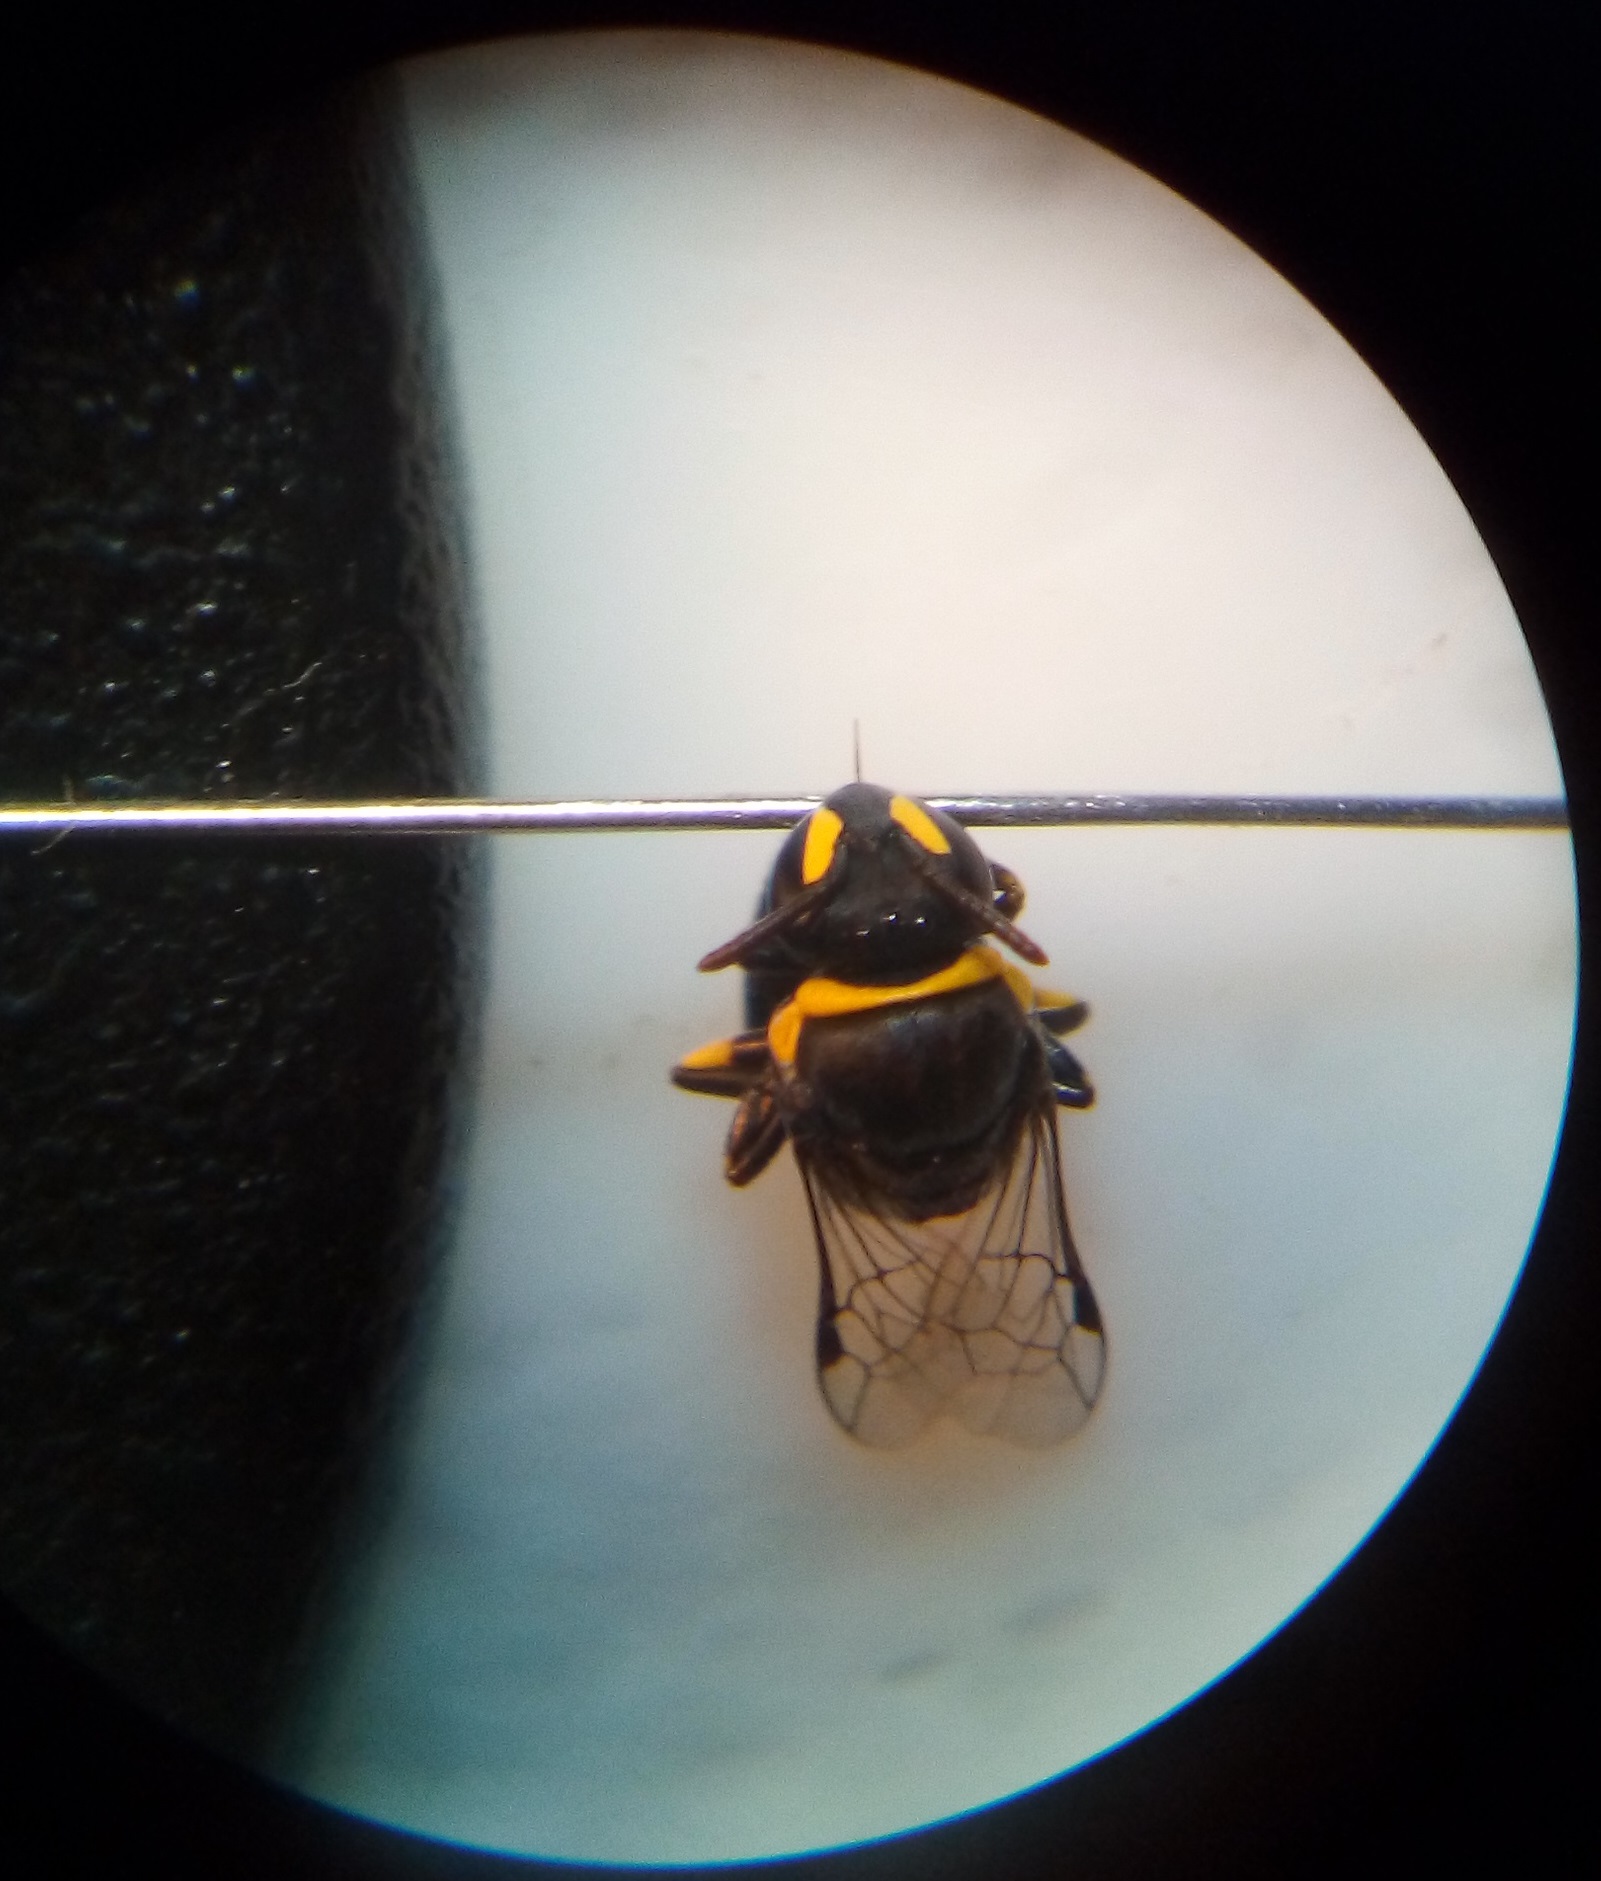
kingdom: Animalia
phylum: Arthropoda
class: Insecta
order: Hymenoptera
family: Colletidae
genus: Hylaeus
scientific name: Hylaeus euxanthus
